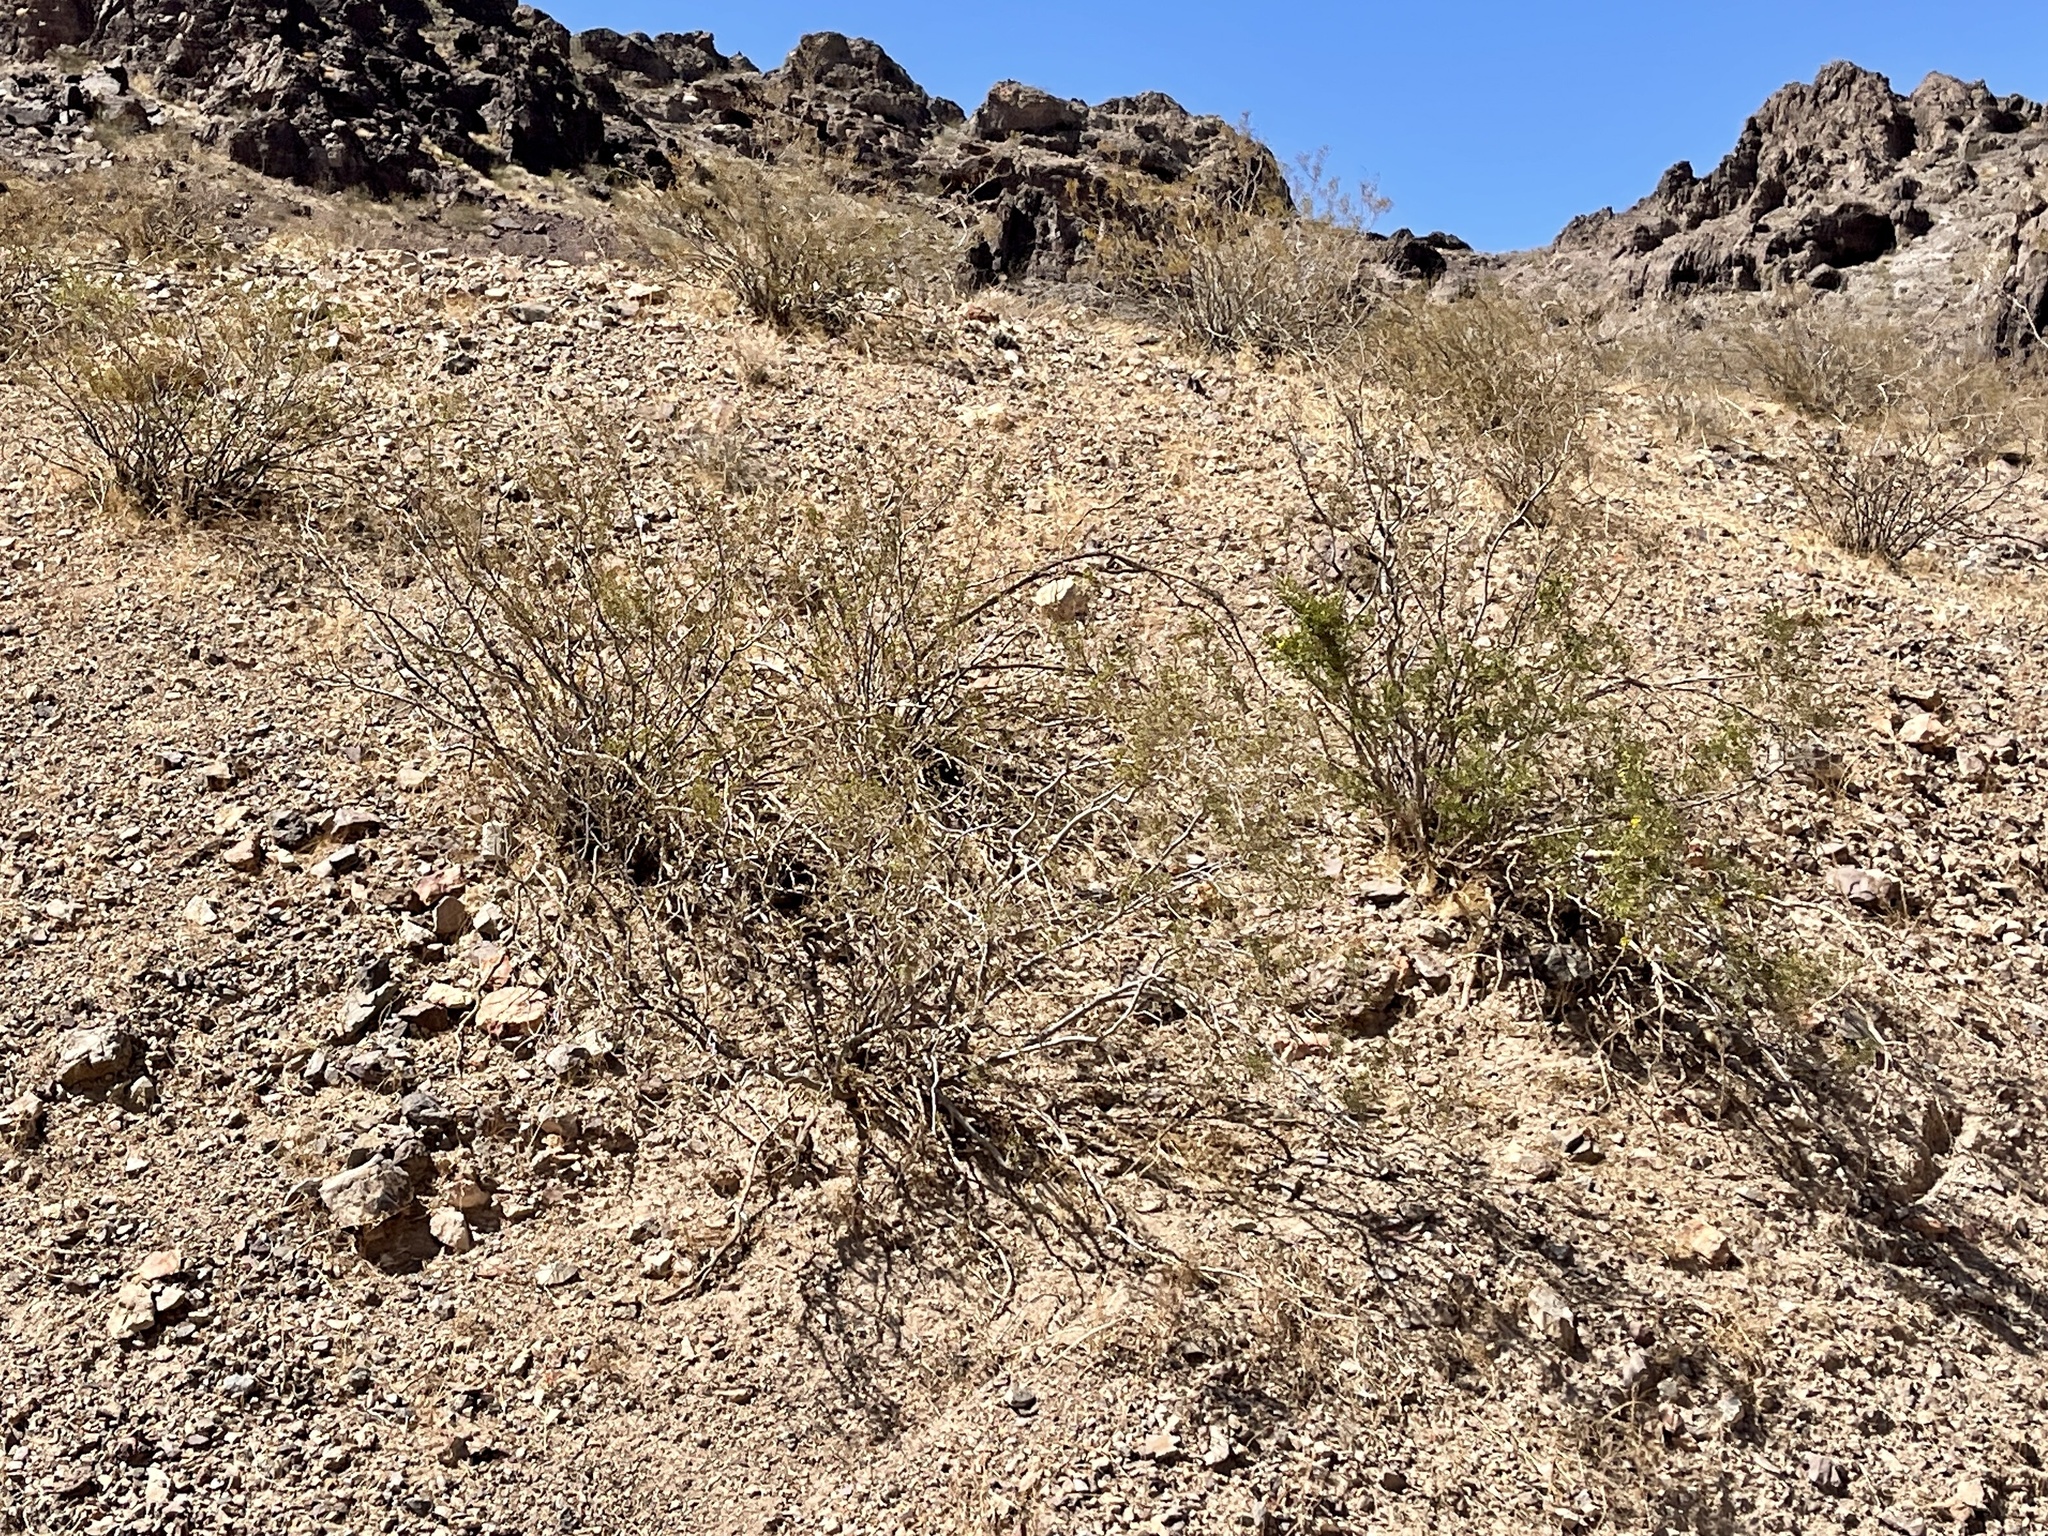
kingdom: Plantae
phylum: Tracheophyta
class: Magnoliopsida
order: Zygophyllales
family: Zygophyllaceae
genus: Larrea
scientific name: Larrea tridentata
